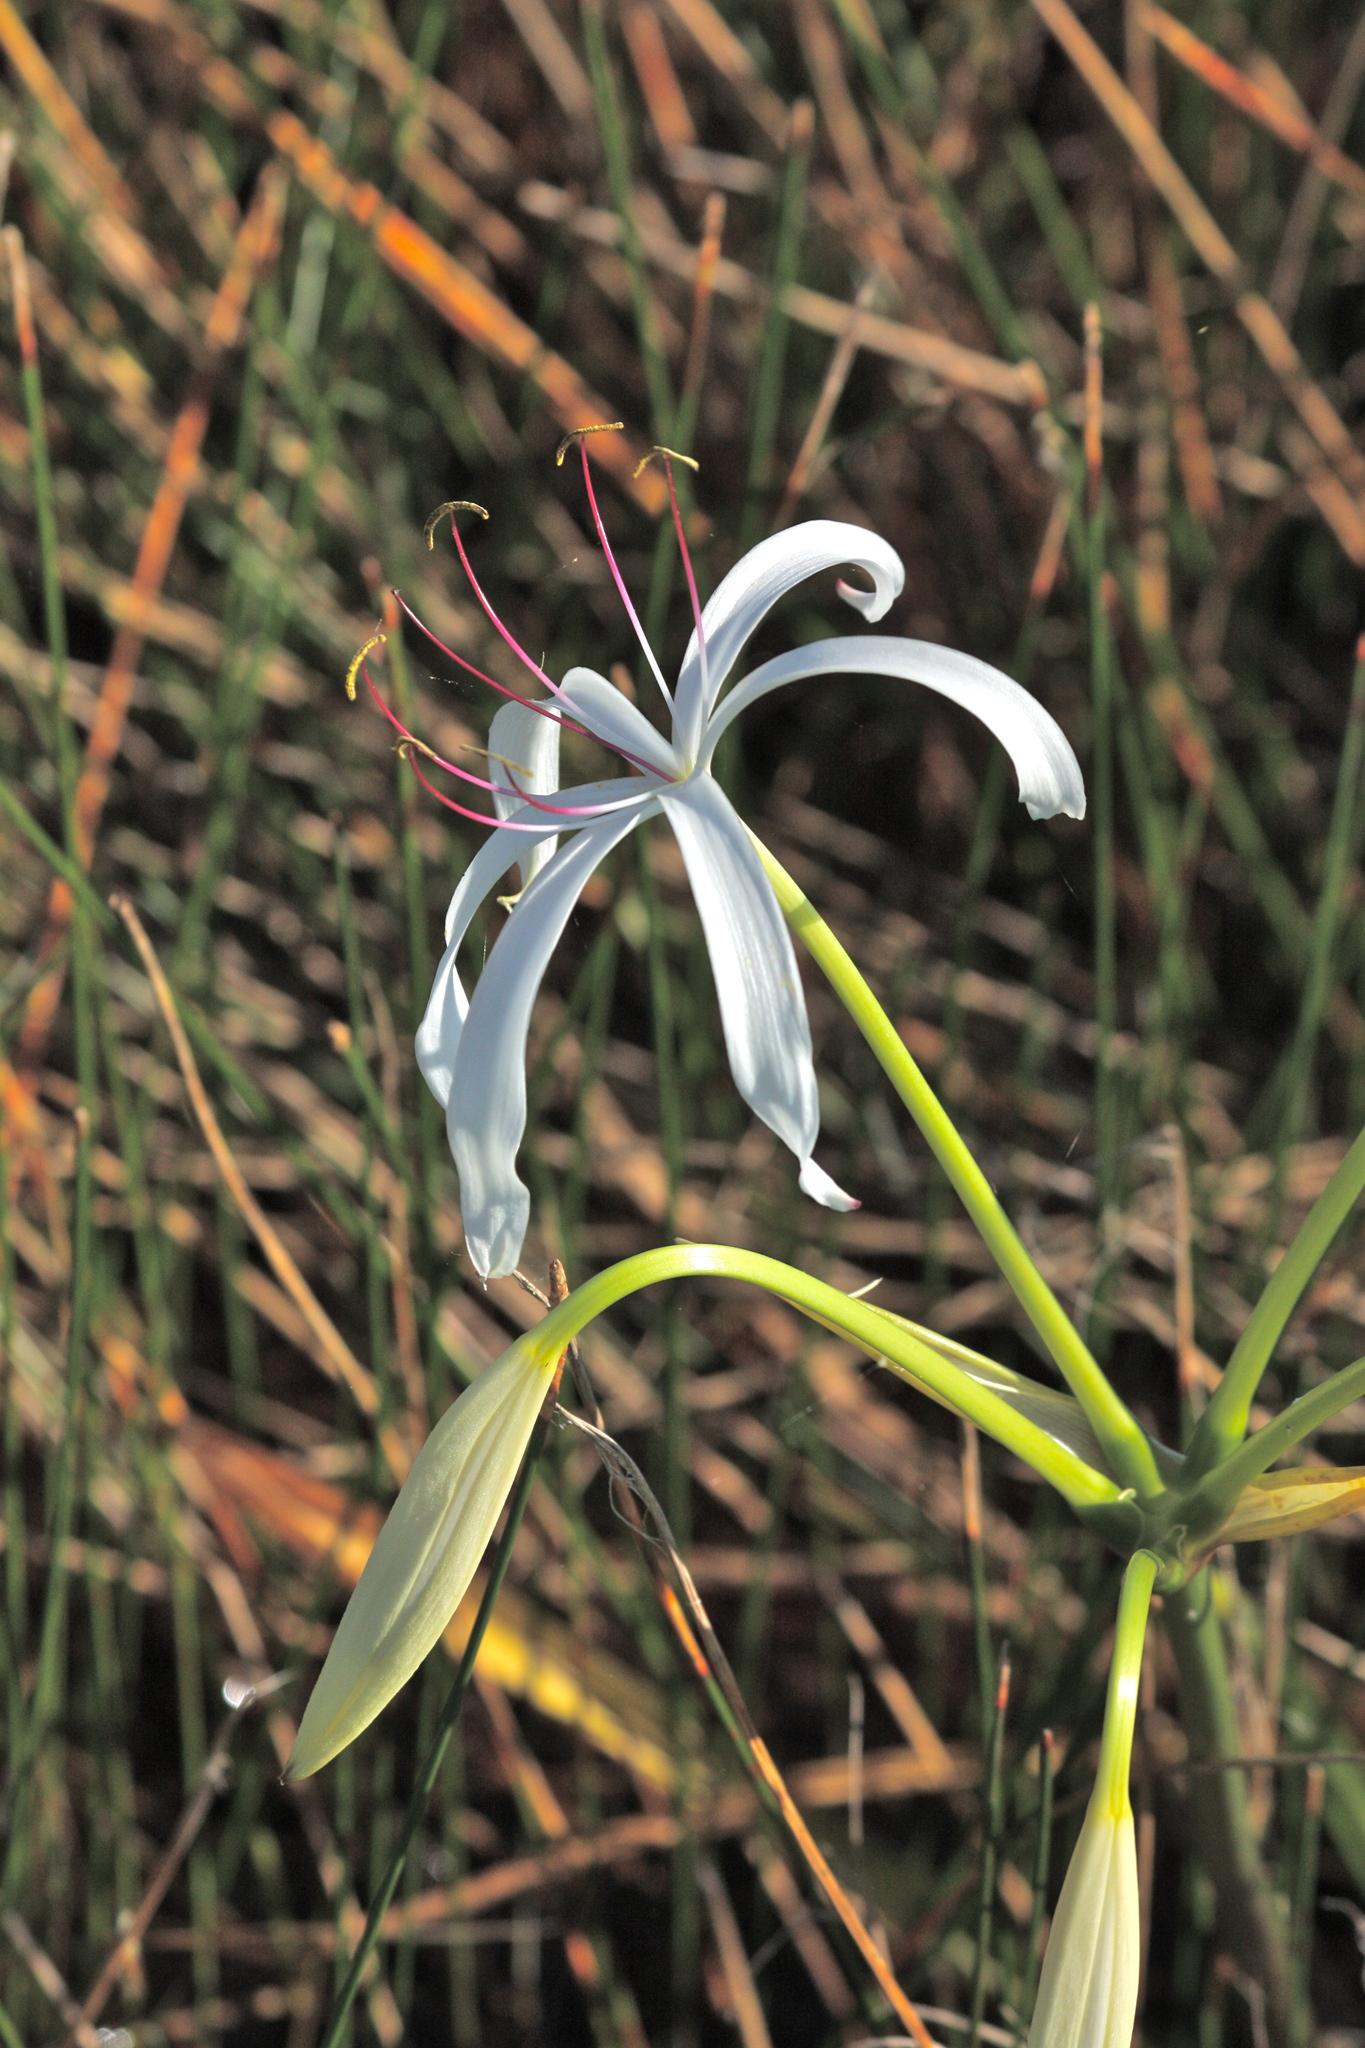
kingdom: Plantae
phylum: Tracheophyta
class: Liliopsida
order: Asparagales
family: Amaryllidaceae
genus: Crinum
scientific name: Crinum americanum
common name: Florida swamp-lily
